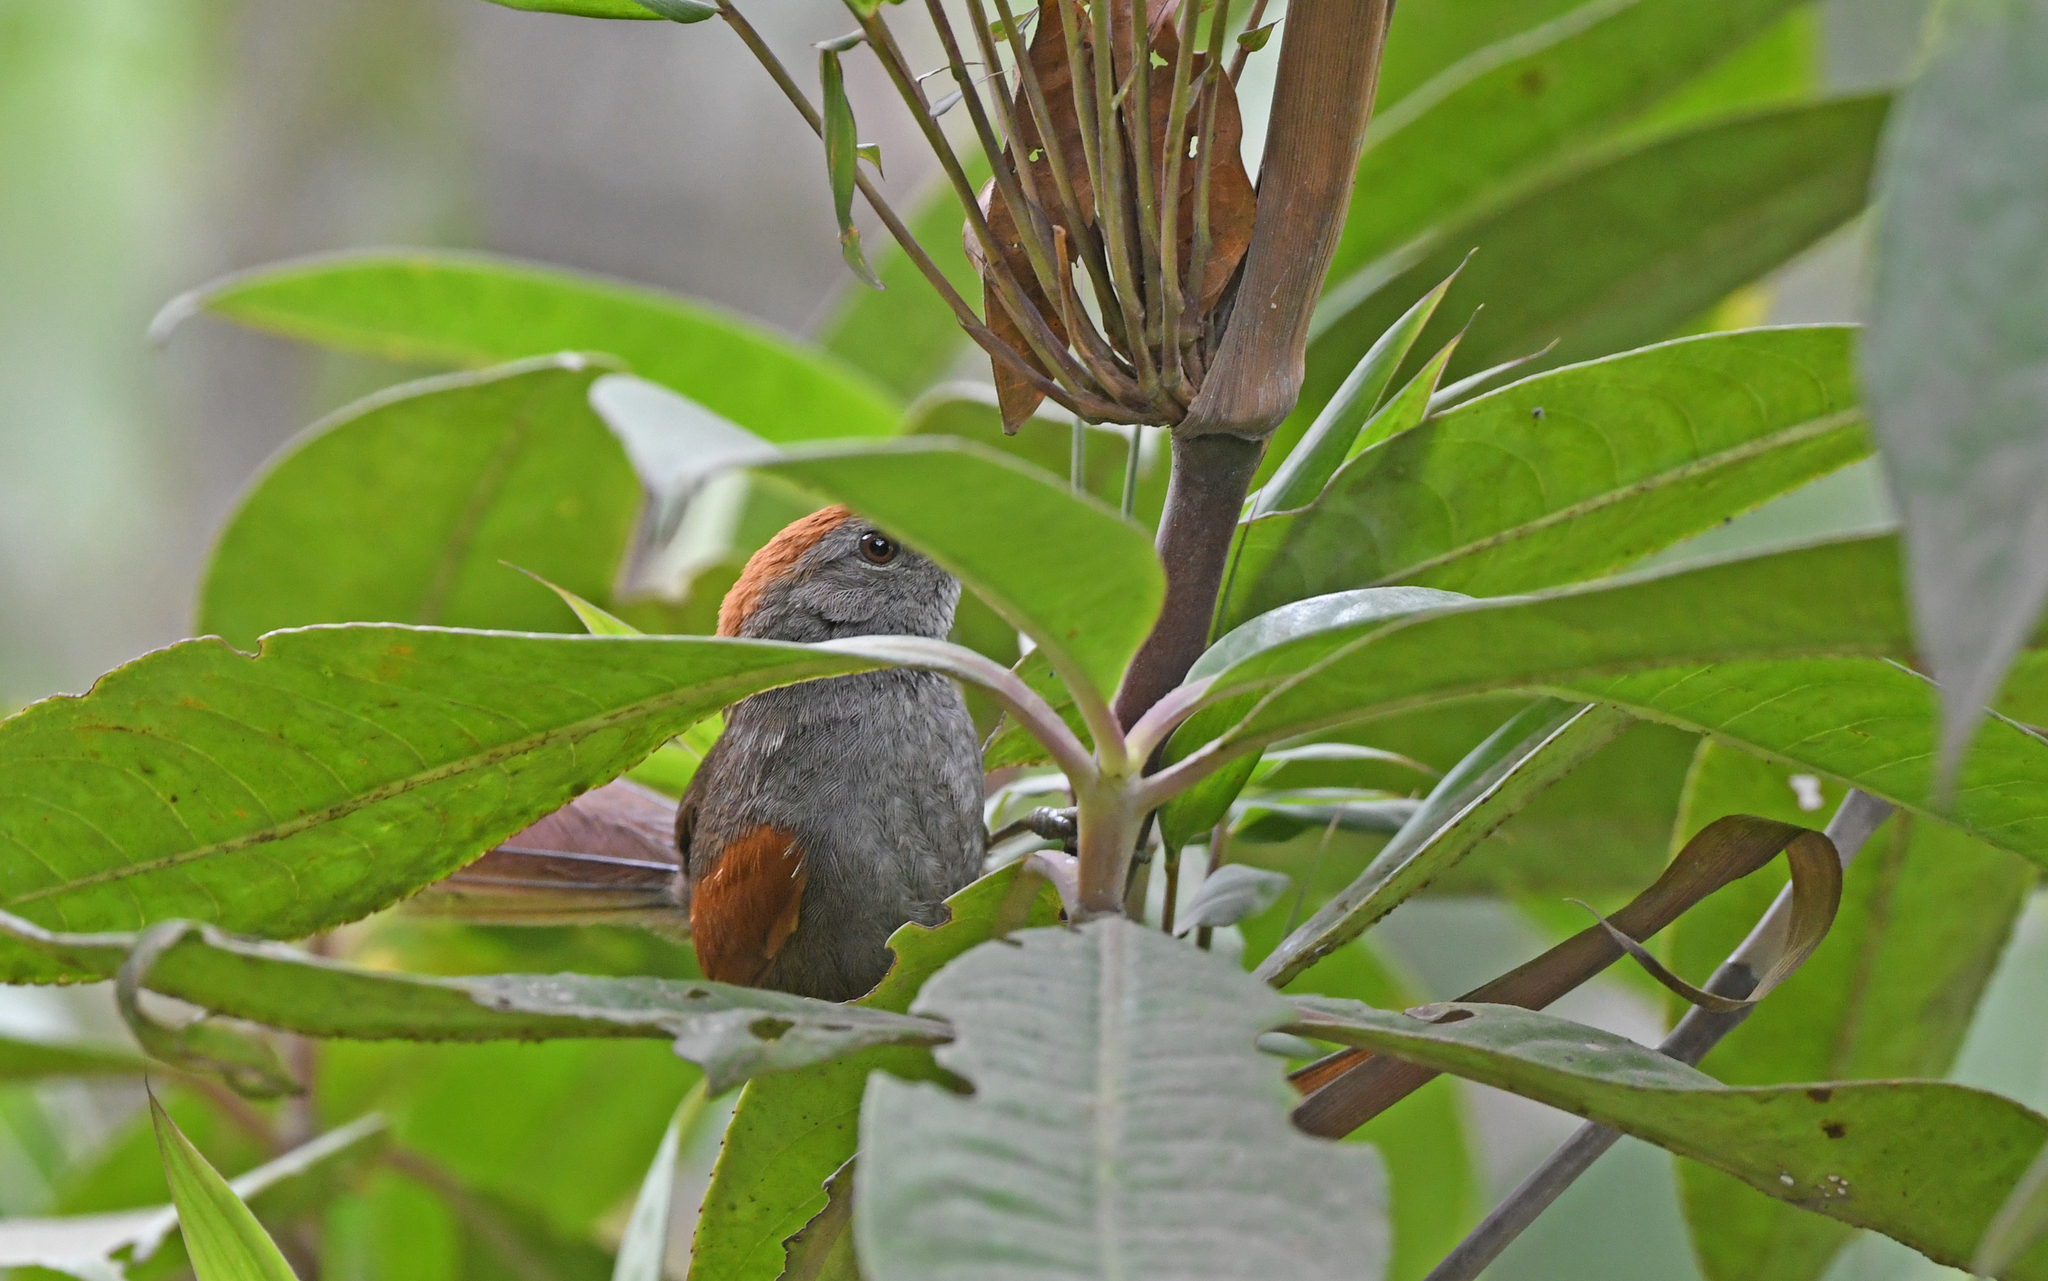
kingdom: Animalia
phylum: Chordata
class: Aves
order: Passeriformes
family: Furnariidae
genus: Synallaxis
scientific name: Synallaxis azarae
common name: Azara's spinetail
